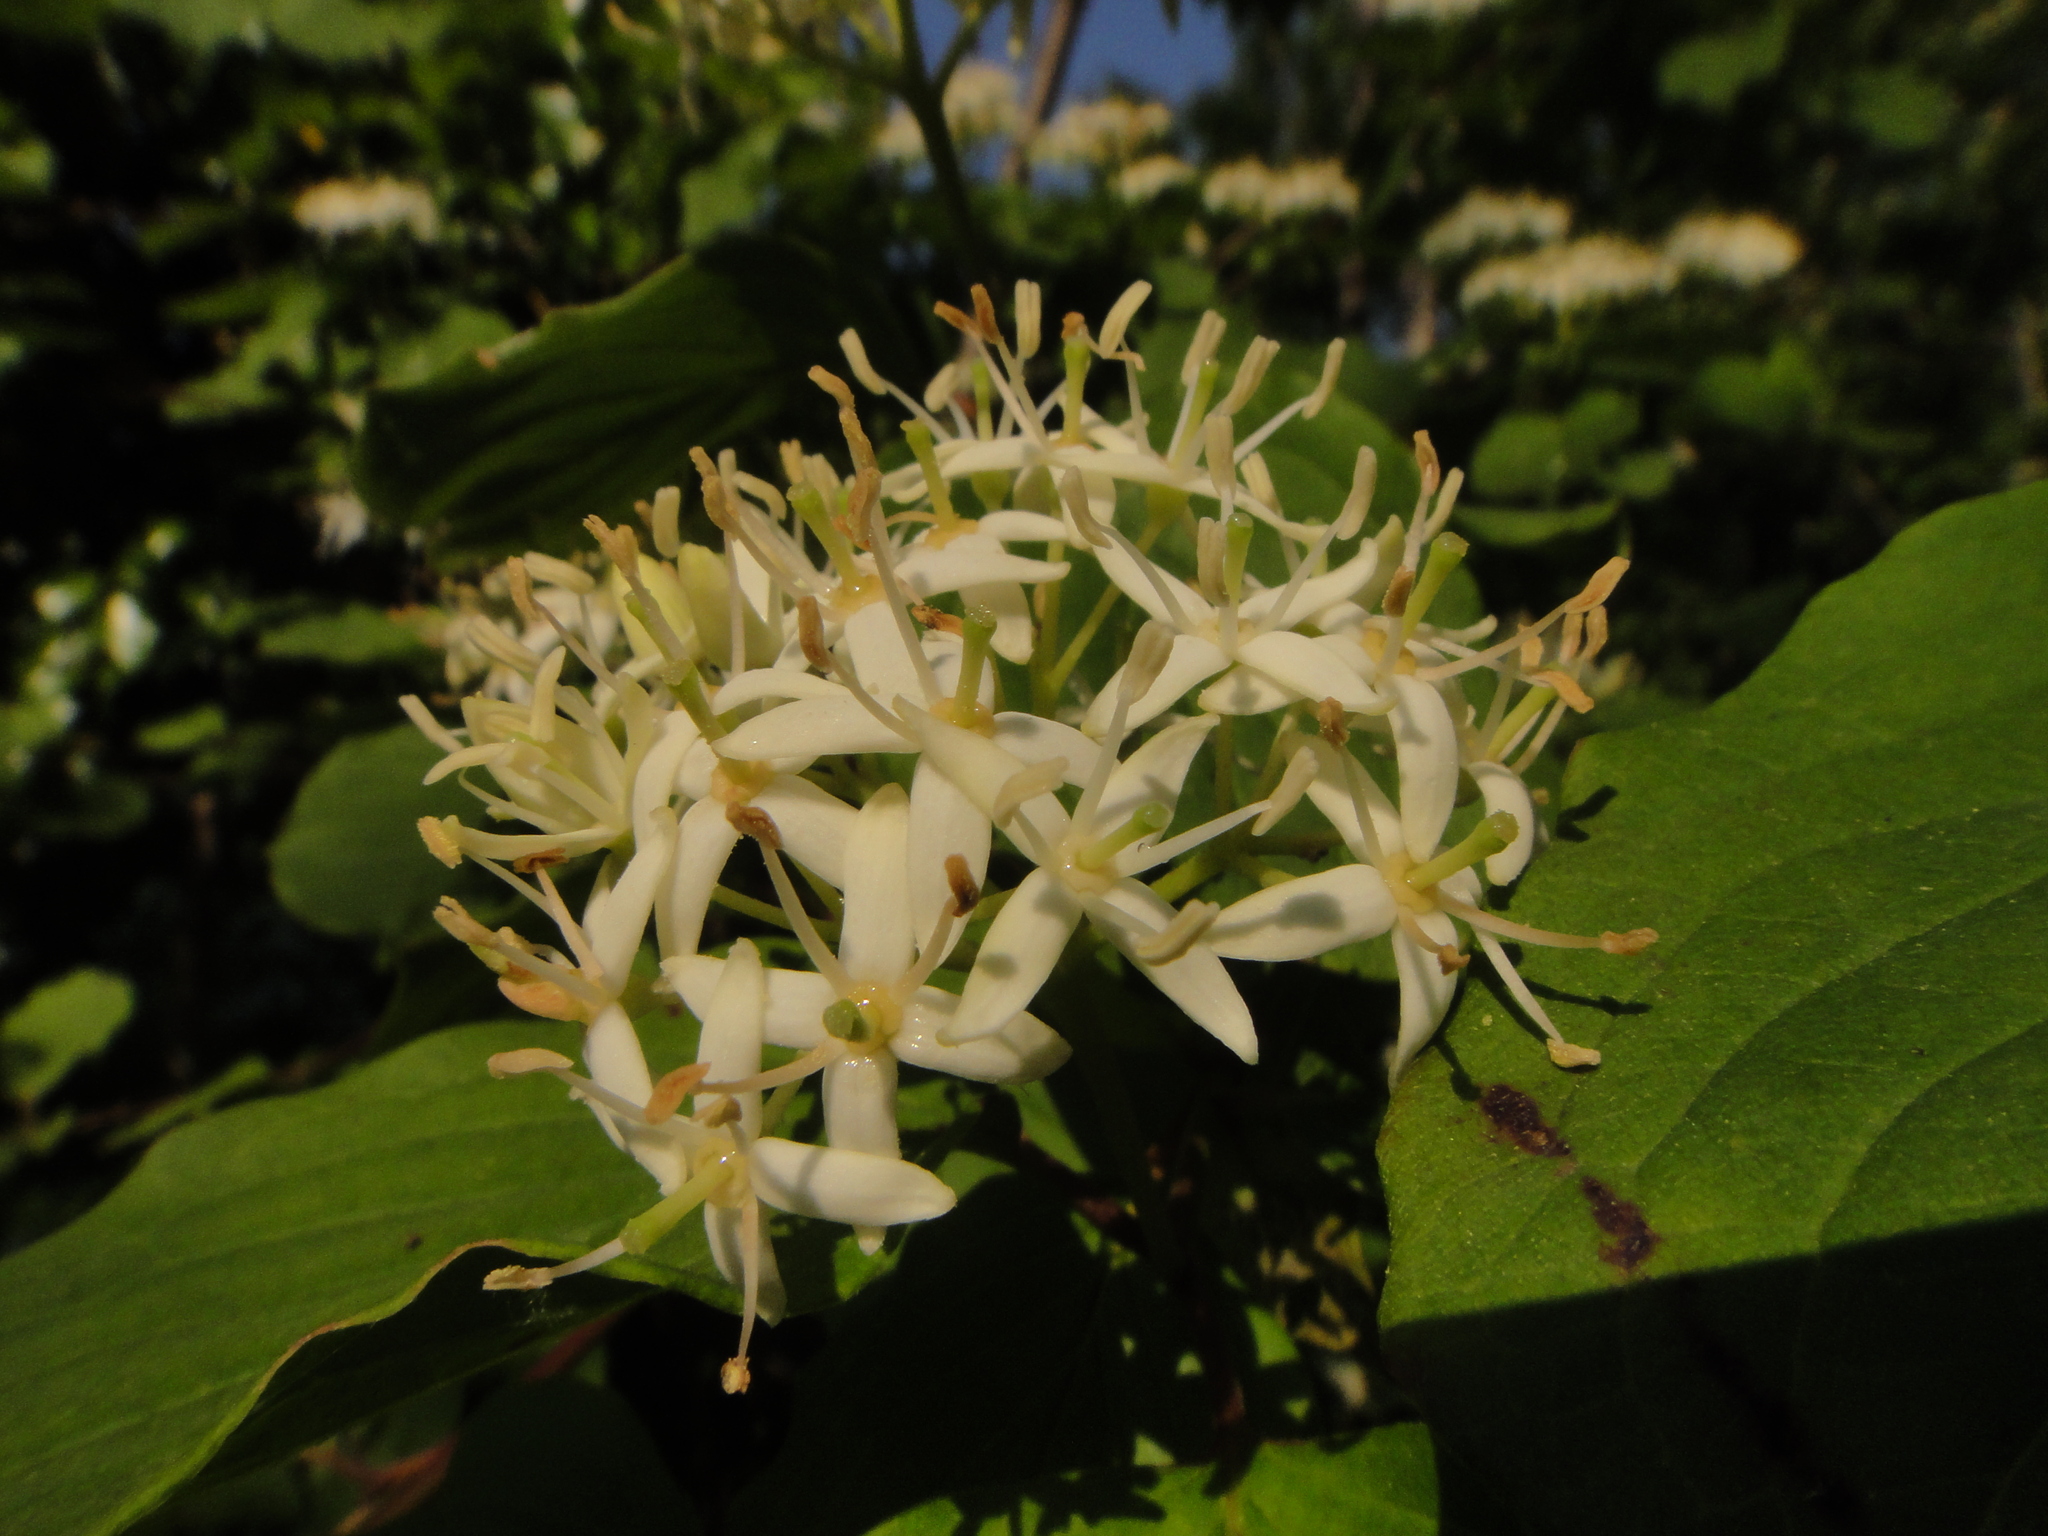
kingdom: Plantae
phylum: Tracheophyta
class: Magnoliopsida
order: Cornales
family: Cornaceae
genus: Cornus
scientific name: Cornus sanguinea
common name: Dogwood
